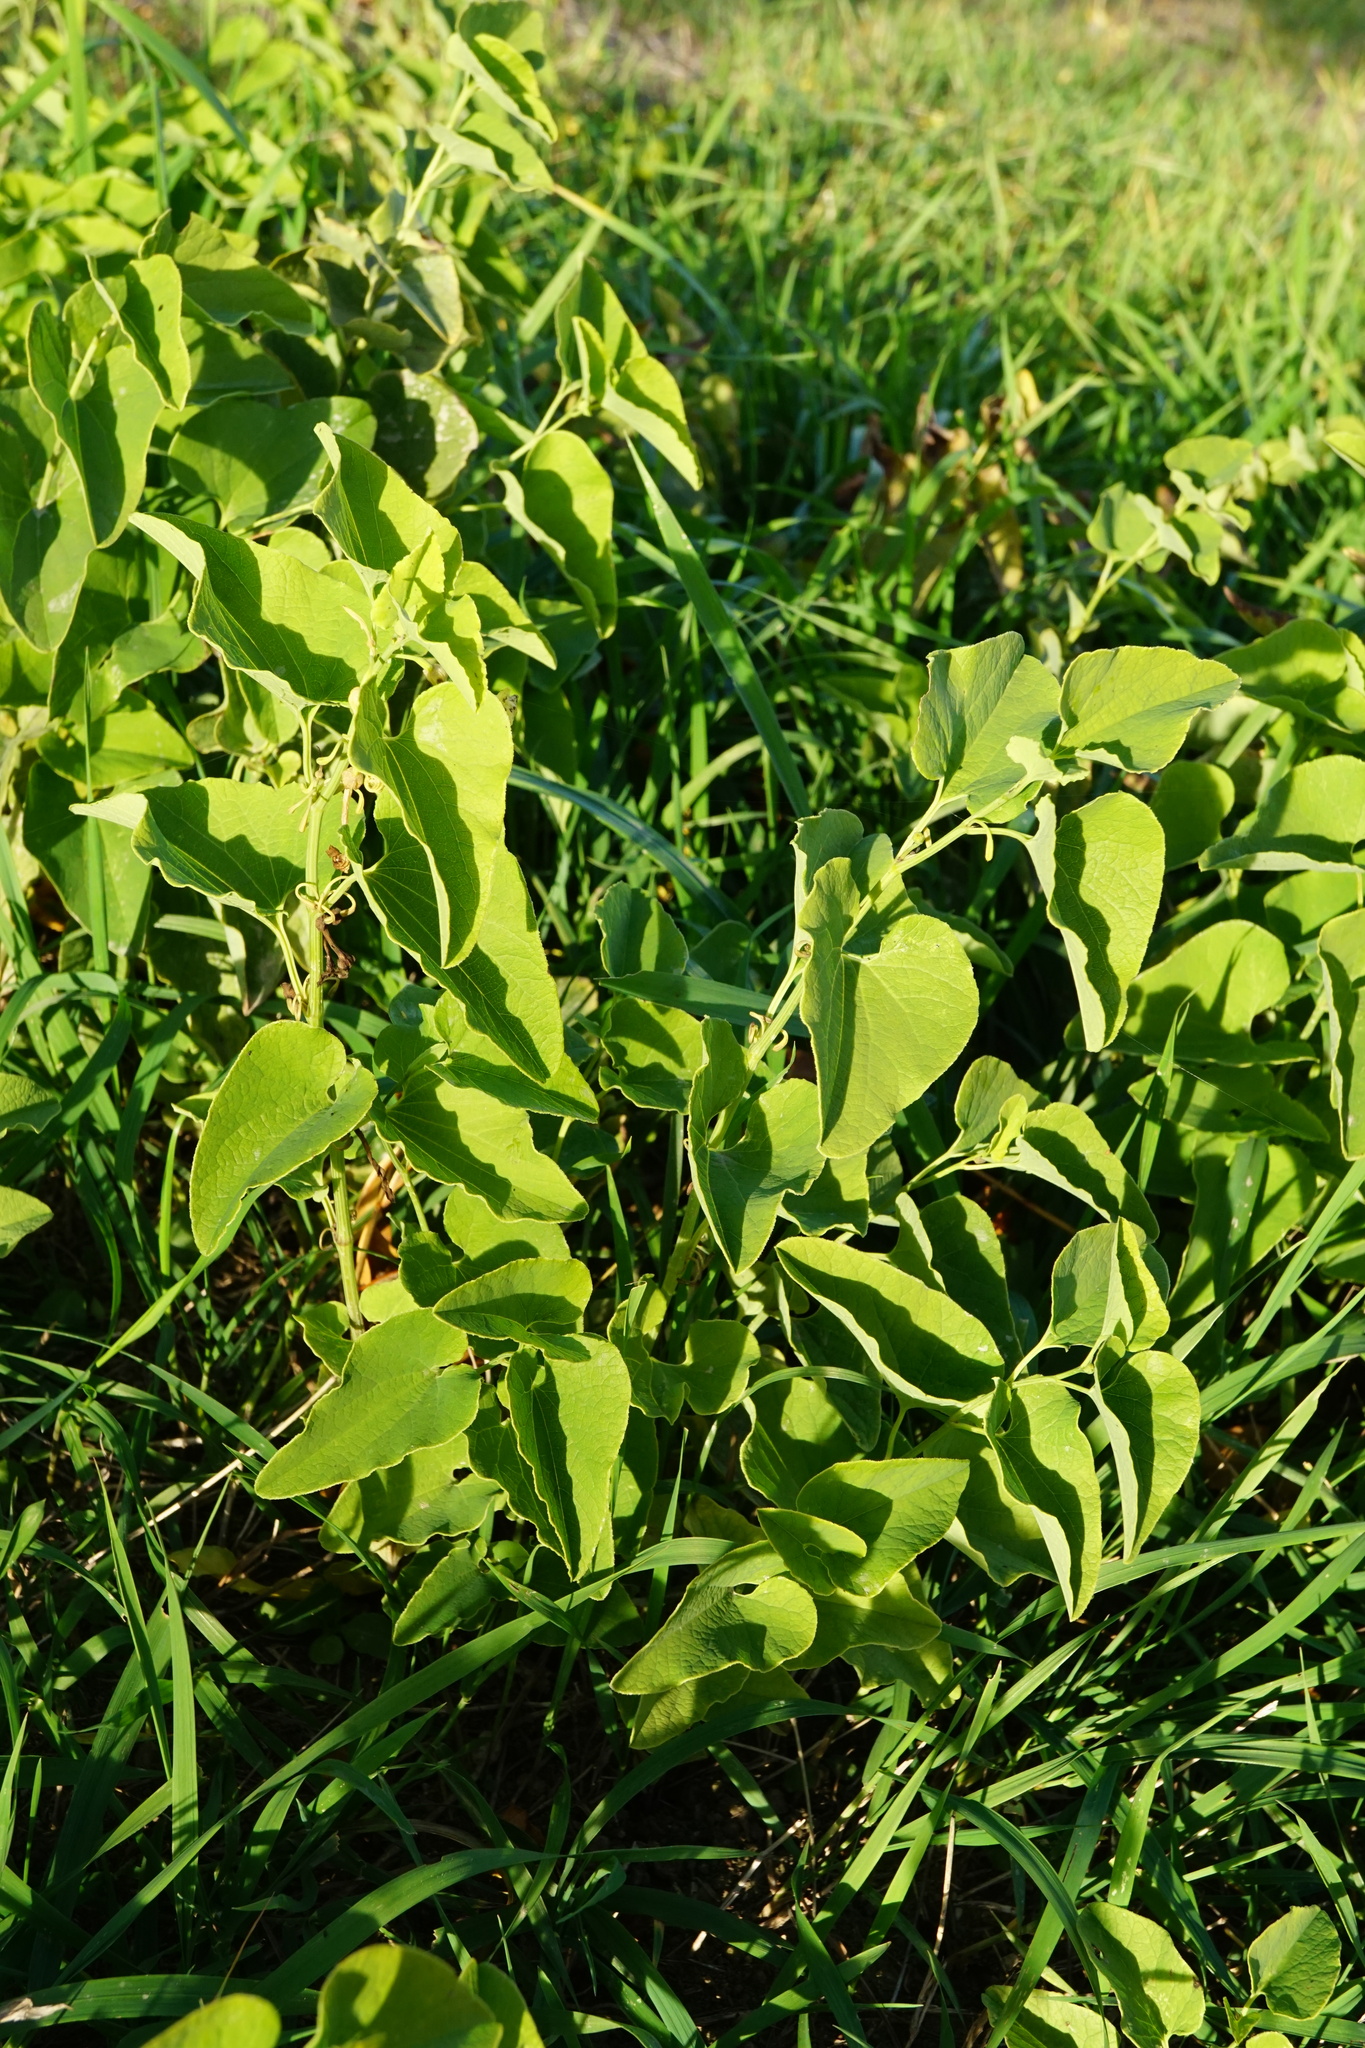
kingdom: Plantae
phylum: Tracheophyta
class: Magnoliopsida
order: Piperales
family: Aristolochiaceae
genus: Aristolochia
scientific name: Aristolochia clematitis
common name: Birthwort
